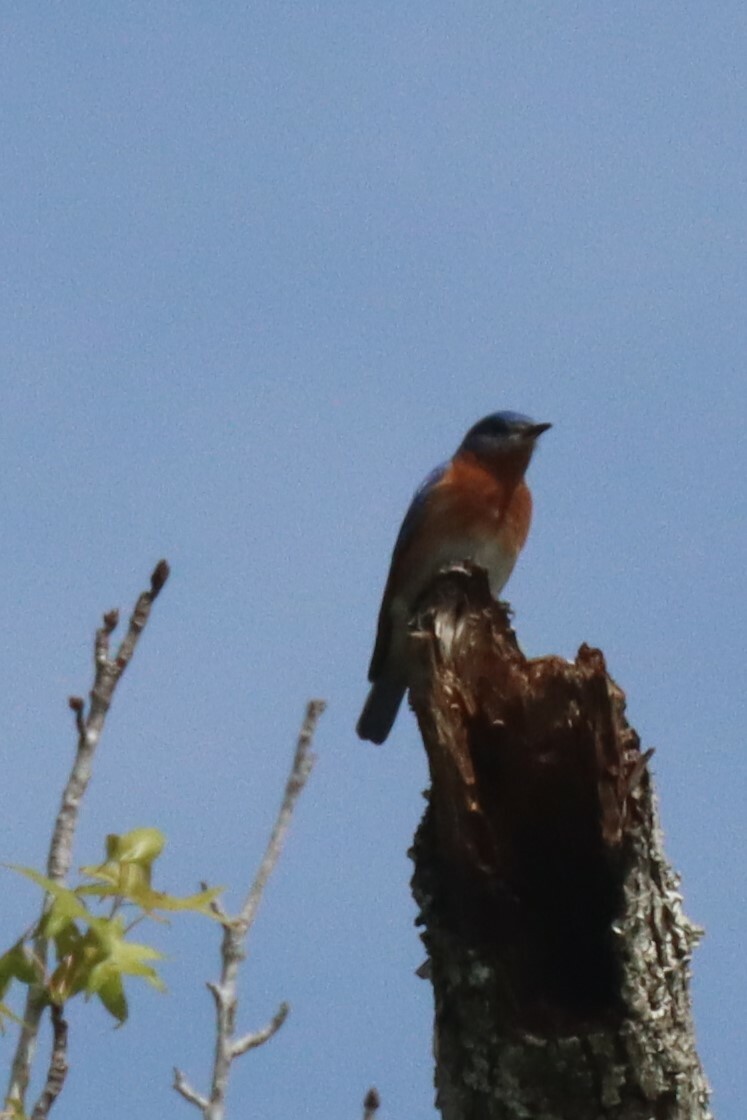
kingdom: Animalia
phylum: Chordata
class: Aves
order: Passeriformes
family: Turdidae
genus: Sialia
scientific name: Sialia sialis
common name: Eastern bluebird
